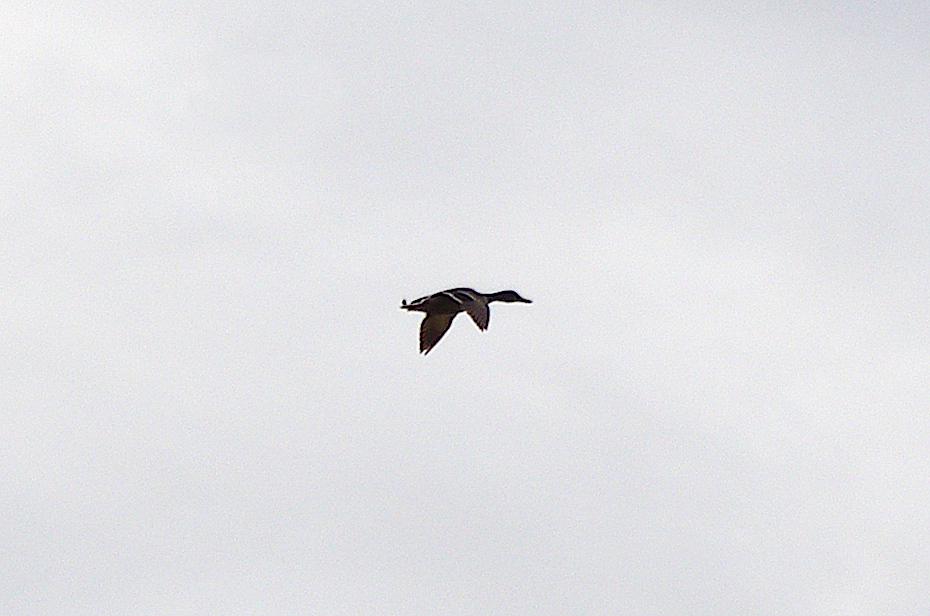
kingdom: Animalia
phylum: Chordata
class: Aves
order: Anseriformes
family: Anatidae
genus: Anas
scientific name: Anas platyrhynchos
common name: Mallard
